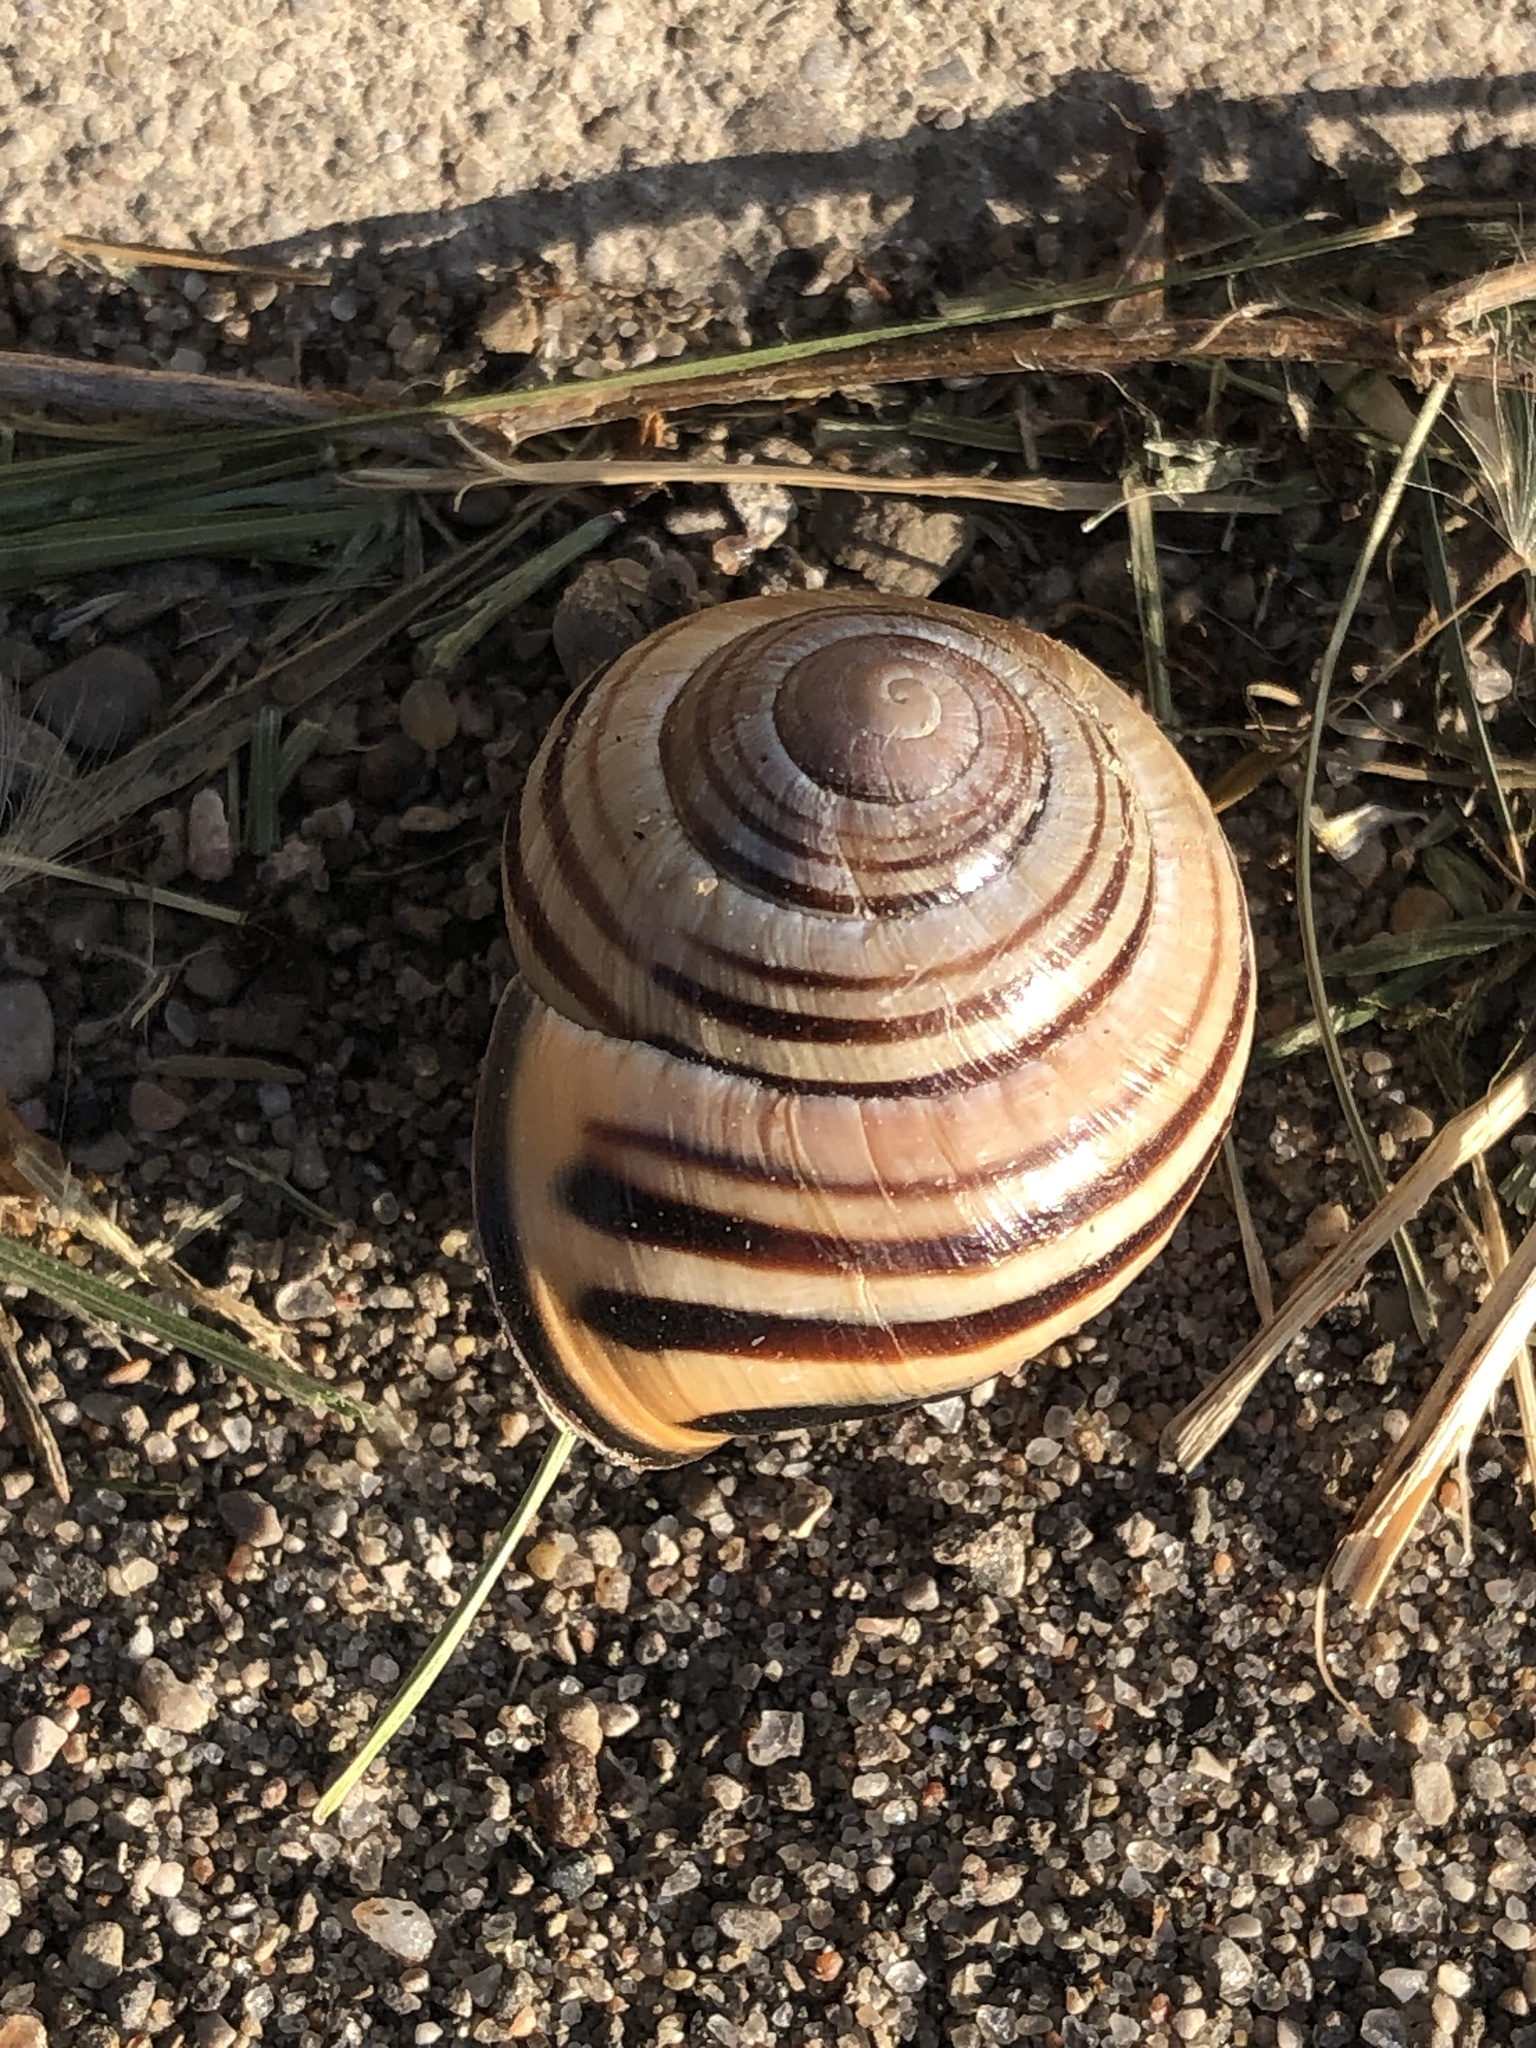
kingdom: Animalia
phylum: Mollusca
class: Gastropoda
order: Stylommatophora
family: Helicidae
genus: Cepaea
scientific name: Cepaea nemoralis
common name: Grovesnail
